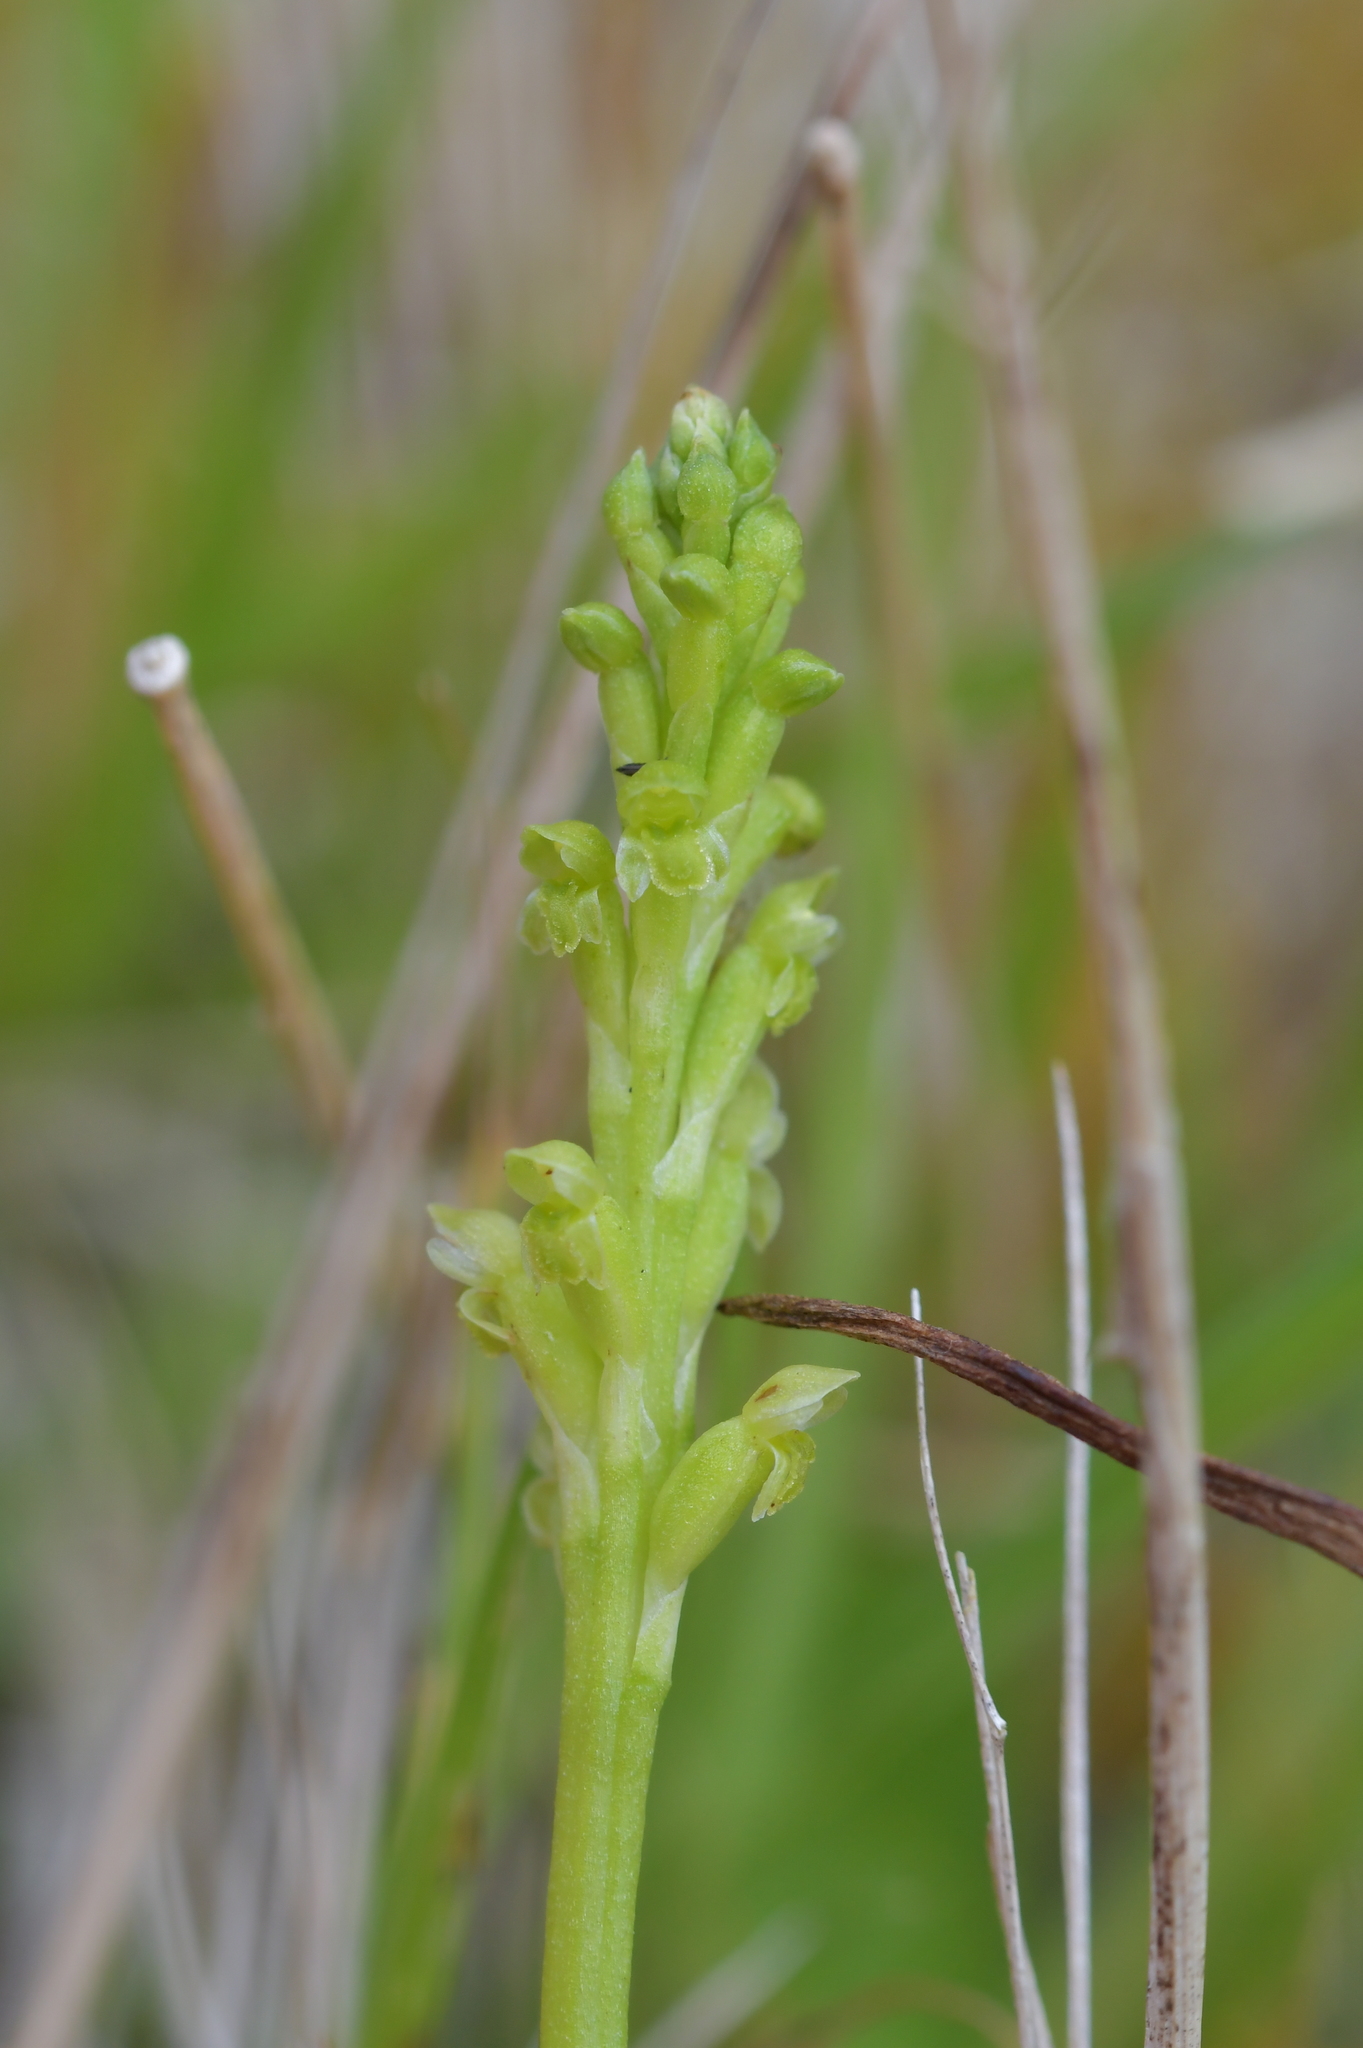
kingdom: Plantae
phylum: Tracheophyta
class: Liliopsida
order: Asparagales
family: Orchidaceae
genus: Microtis
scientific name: Microtis unifolia
